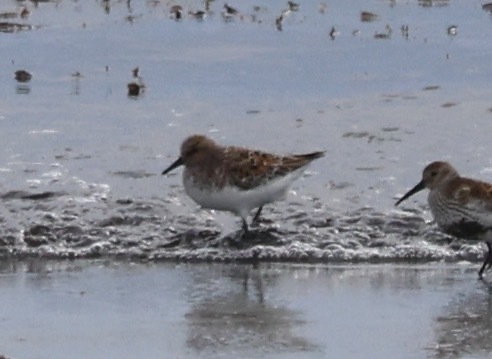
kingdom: Animalia
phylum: Chordata
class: Aves
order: Charadriiformes
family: Scolopacidae
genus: Calidris
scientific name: Calidris alba
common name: Sanderling
